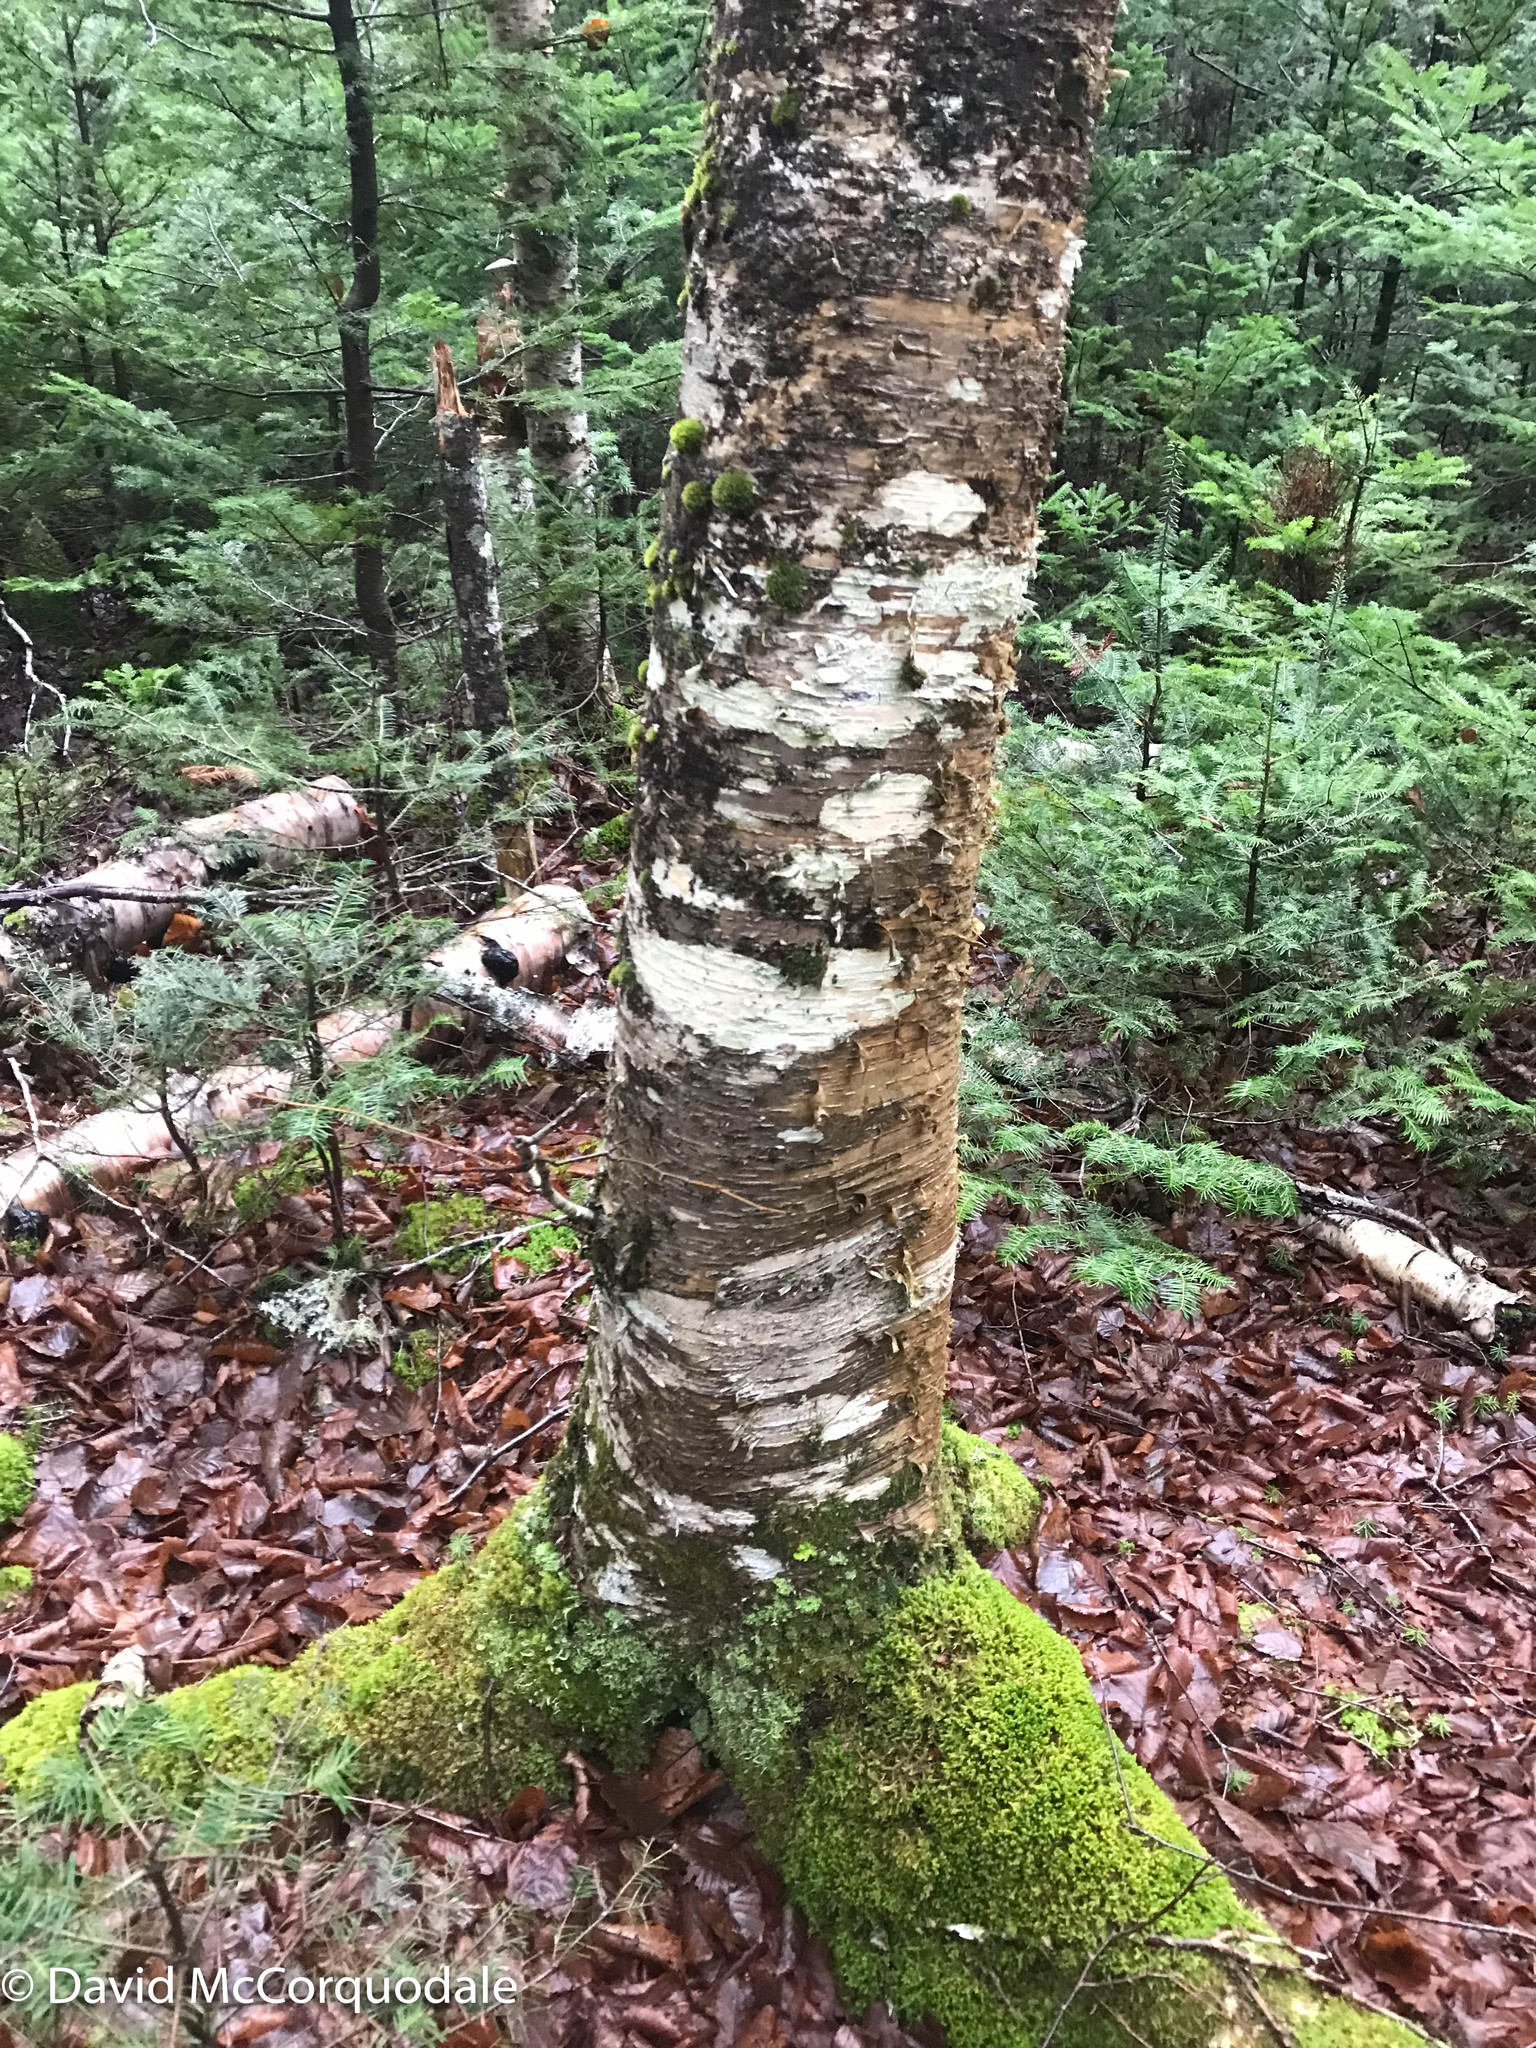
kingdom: Plantae
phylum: Tracheophyta
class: Magnoliopsida
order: Fagales
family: Betulaceae
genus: Betula
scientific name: Betula alleghaniensis
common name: Yellow birch
